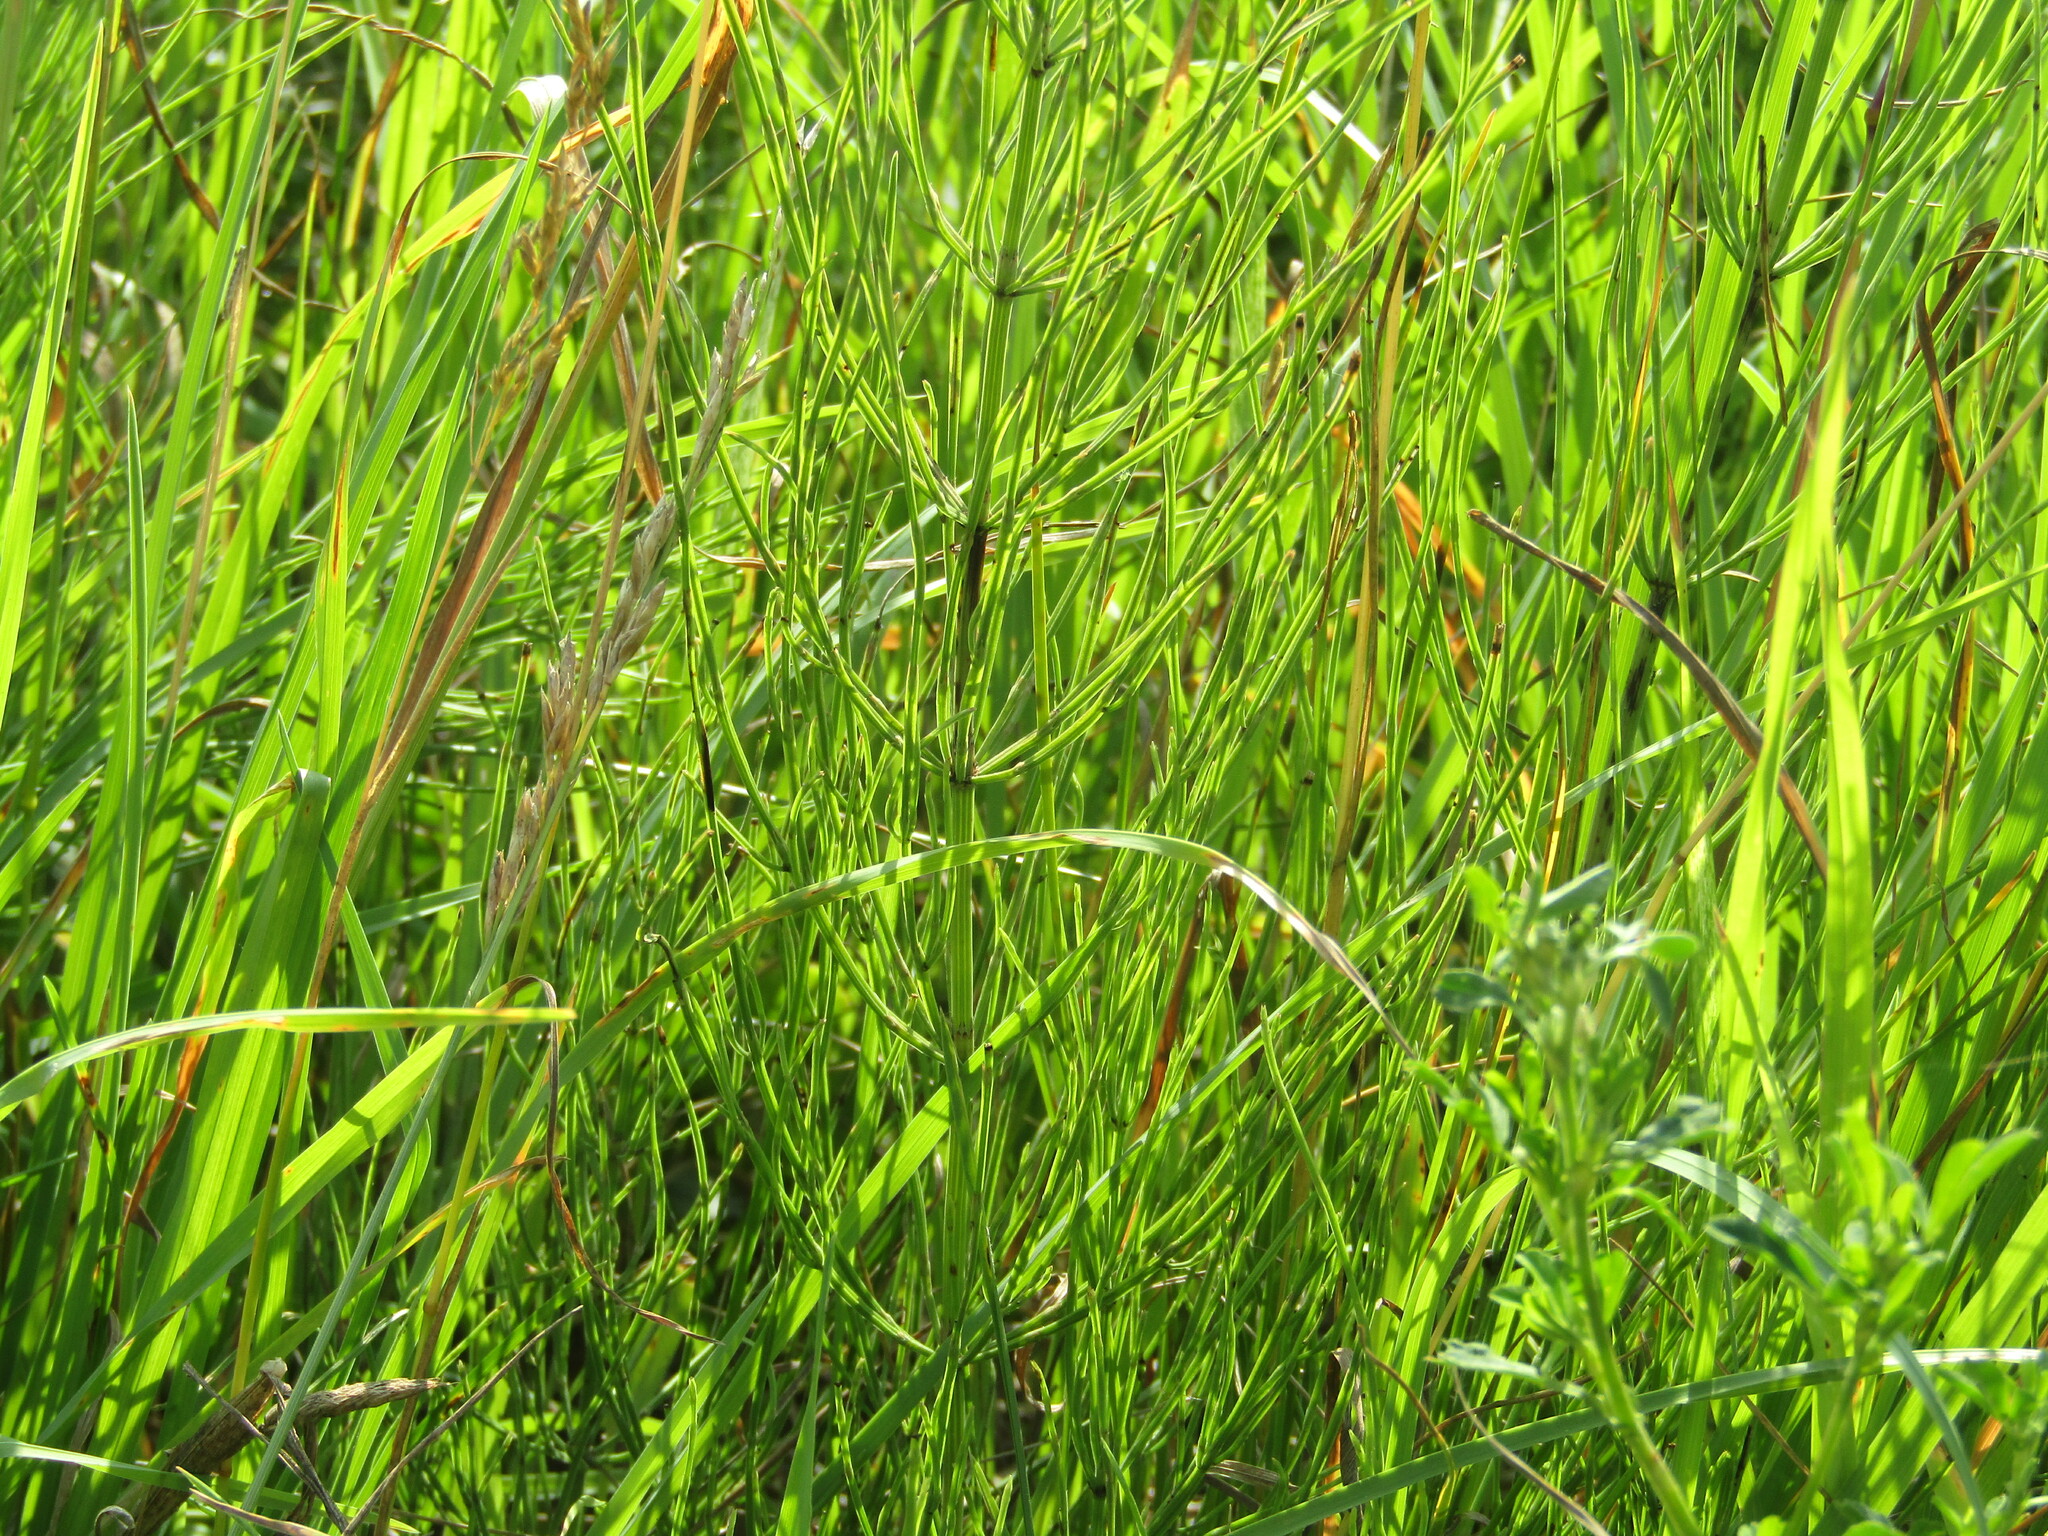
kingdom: Plantae
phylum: Tracheophyta
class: Polypodiopsida
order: Equisetales
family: Equisetaceae
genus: Equisetum
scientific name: Equisetum arvense
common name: Field horsetail
